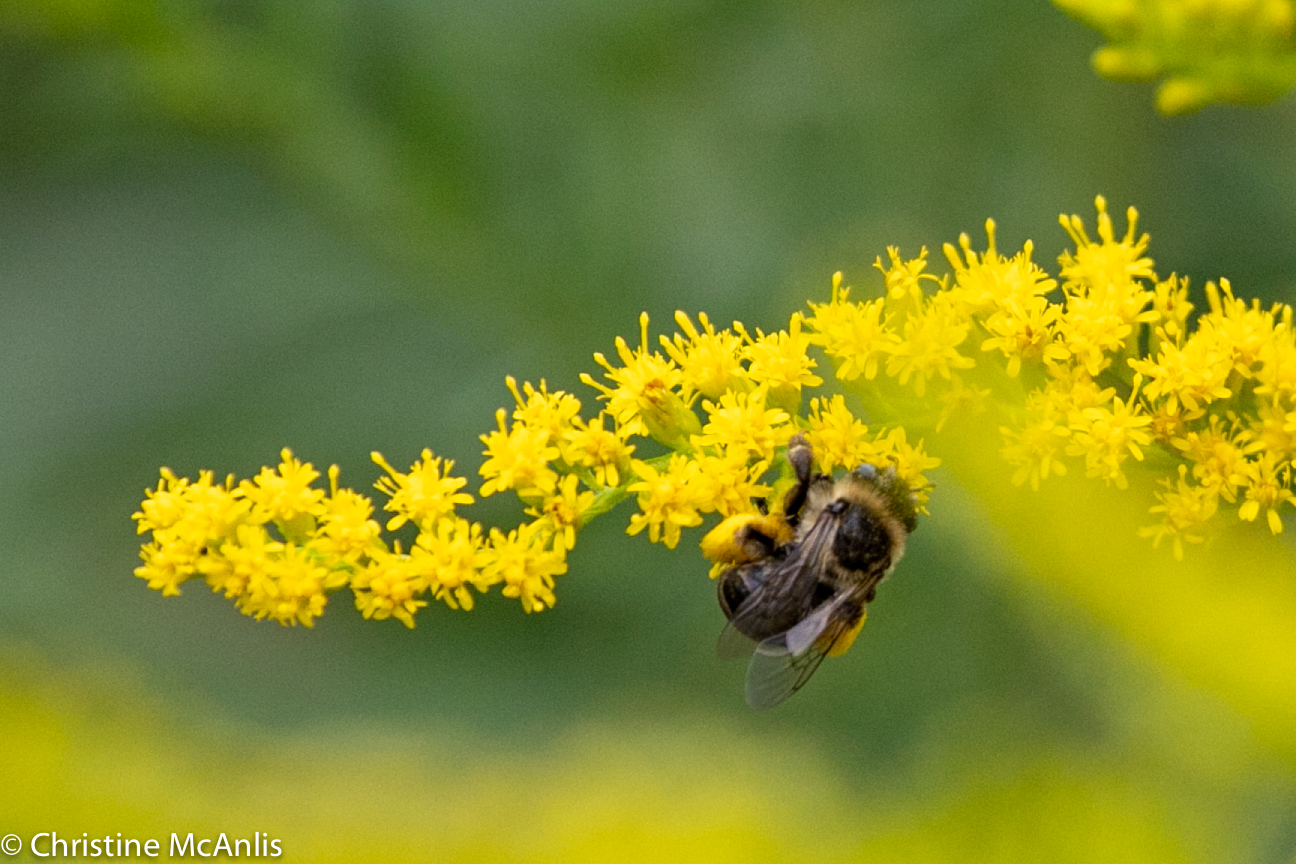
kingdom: Animalia
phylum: Arthropoda
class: Insecta
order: Hymenoptera
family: Apidae
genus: Melissodes
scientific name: Melissodes druriellus
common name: Drury's long-horned bee
